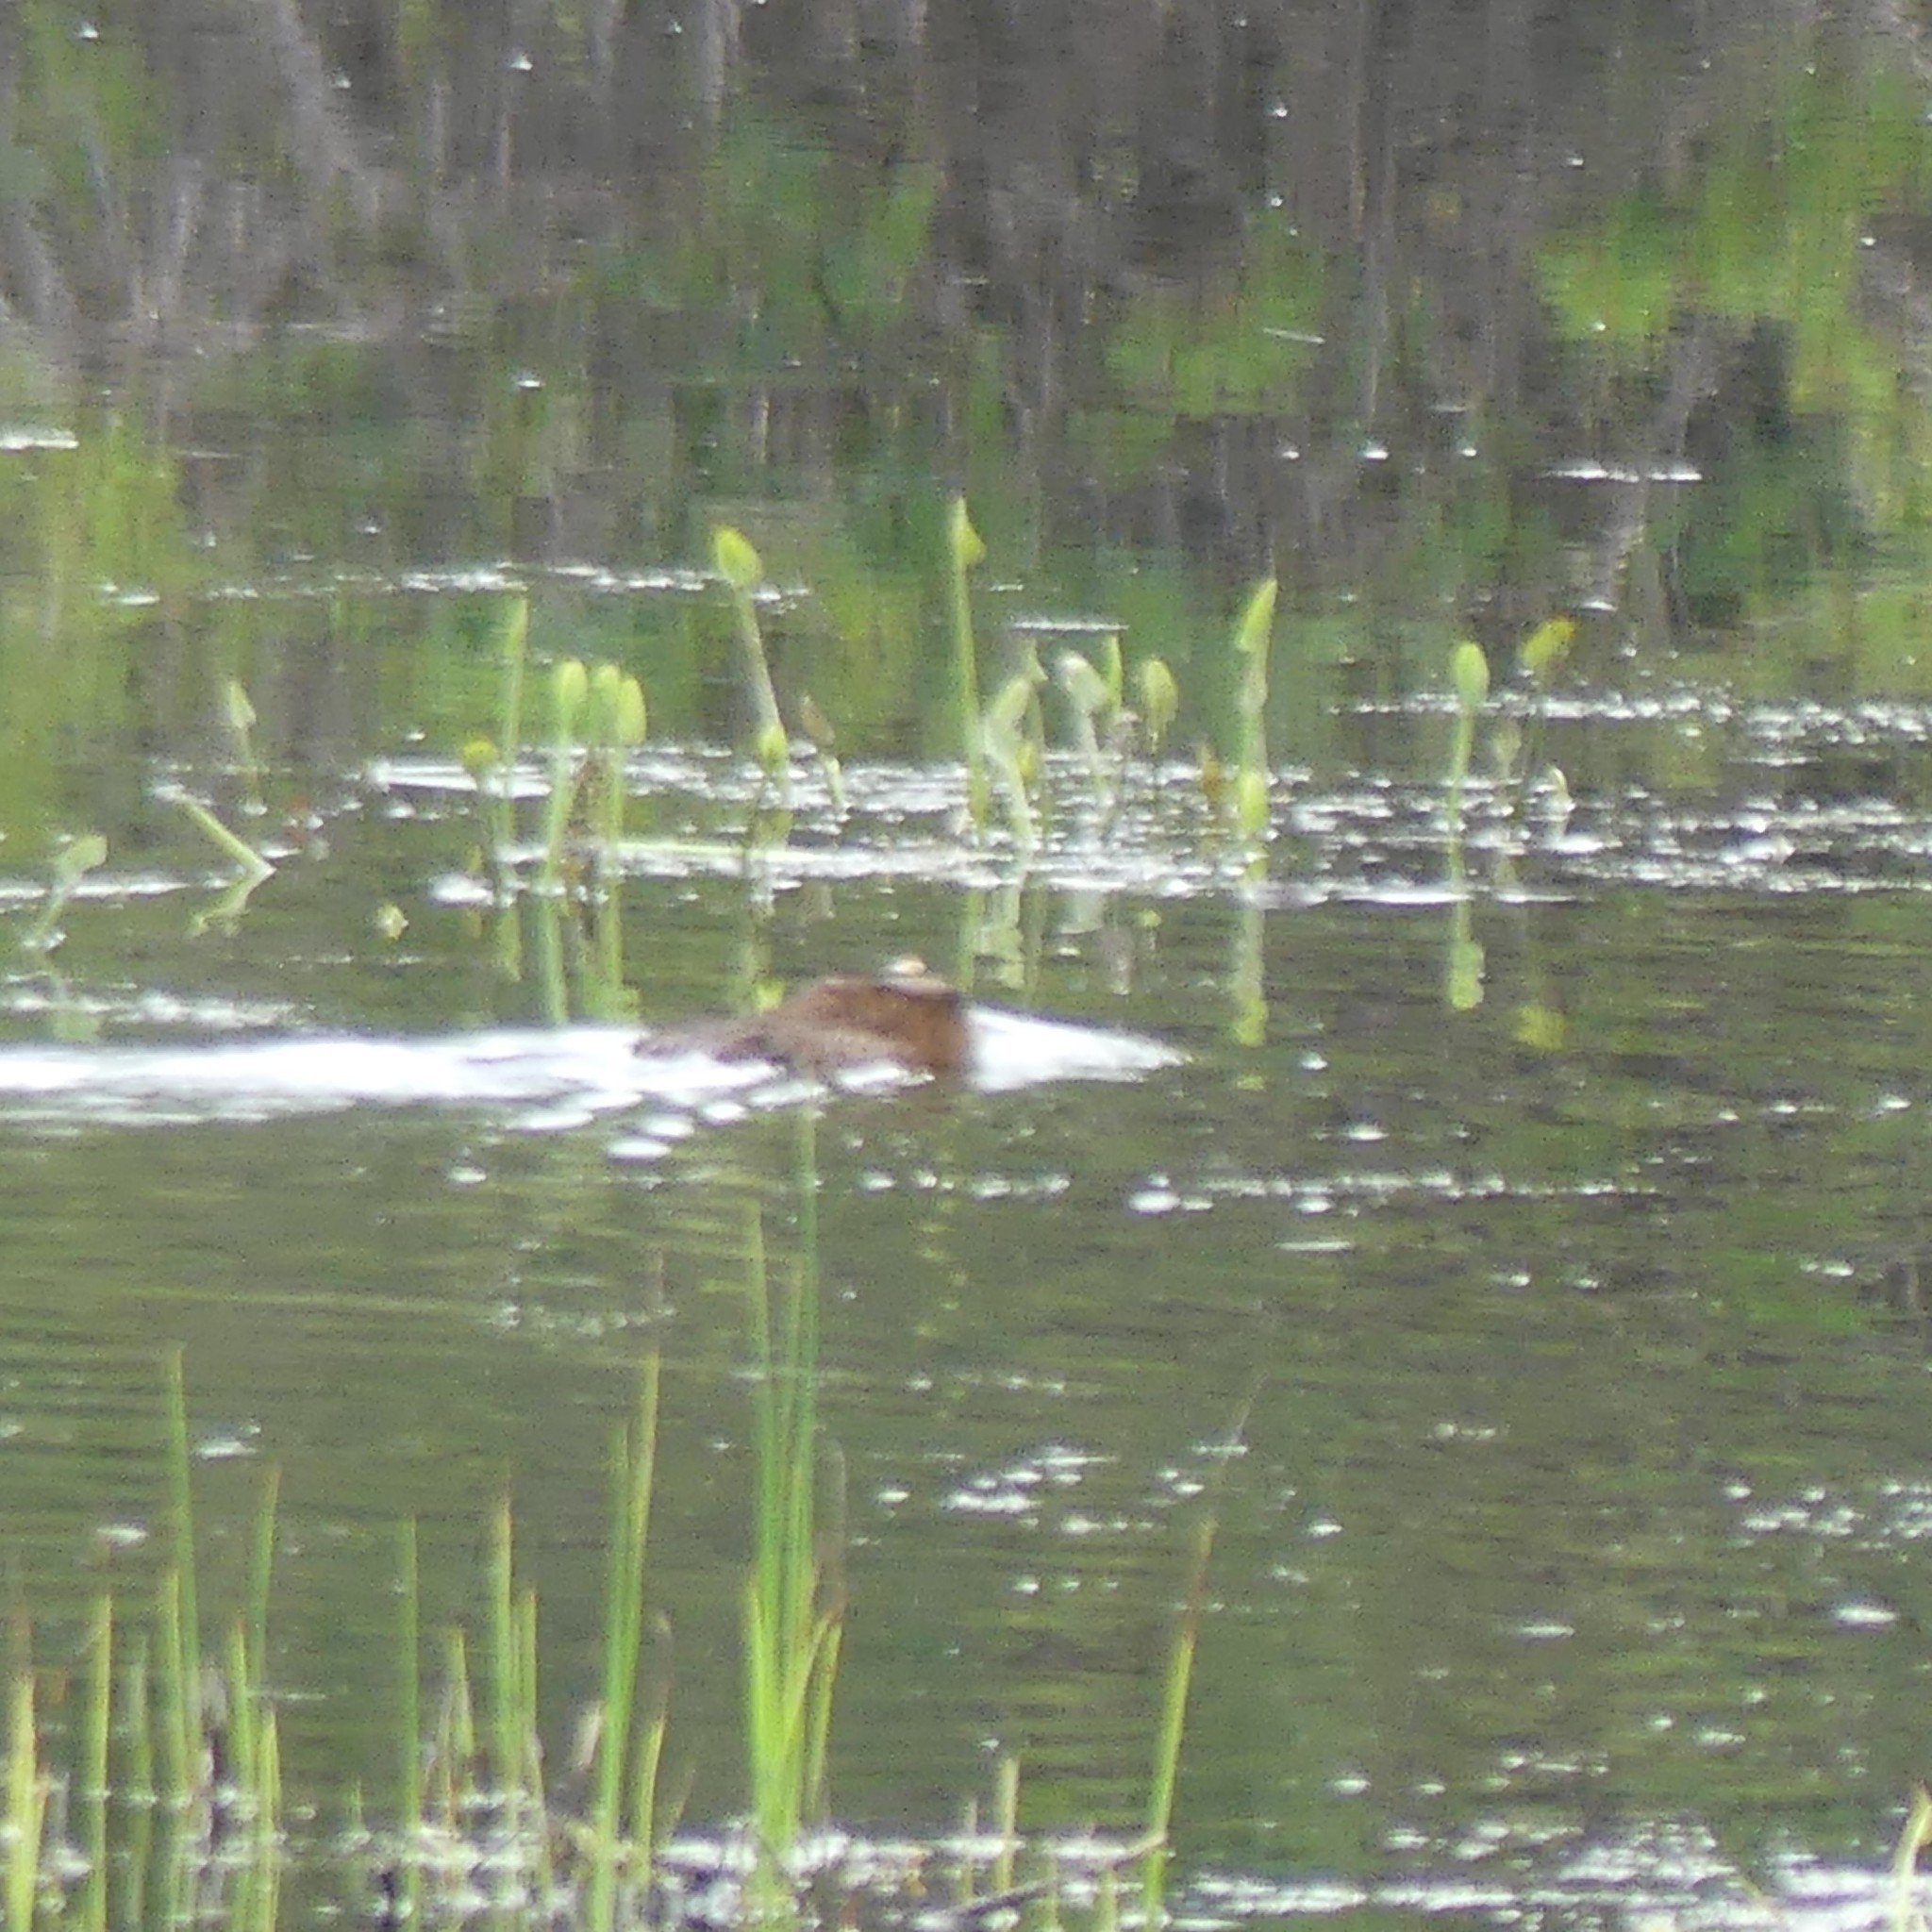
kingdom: Animalia
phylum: Chordata
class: Mammalia
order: Rodentia
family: Castoridae
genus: Castor
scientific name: Castor canadensis
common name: American beaver
